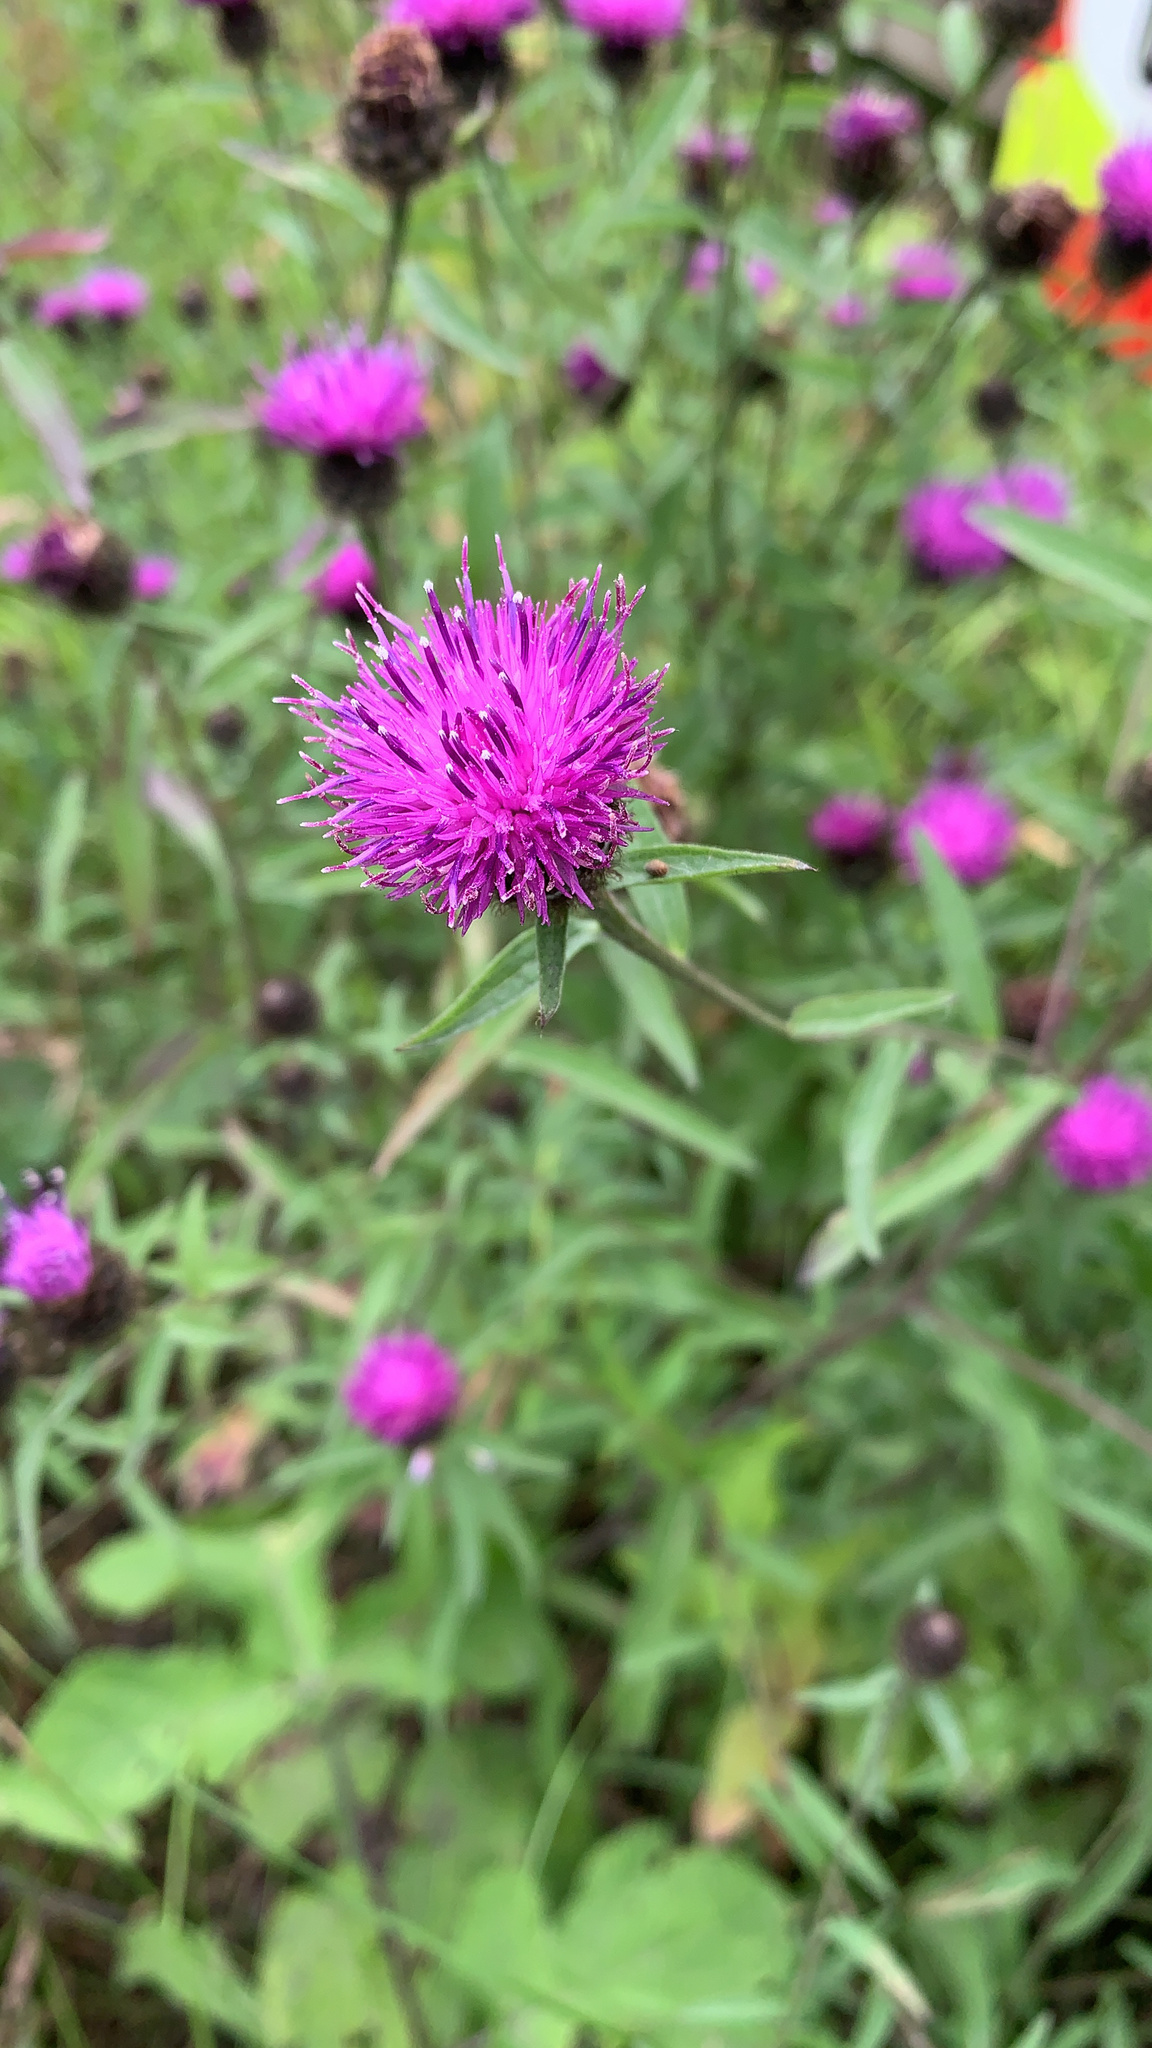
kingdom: Plantae
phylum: Tracheophyta
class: Magnoliopsida
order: Asterales
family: Asteraceae
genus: Centaurea
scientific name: Centaurea nigra
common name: Lesser knapweed
